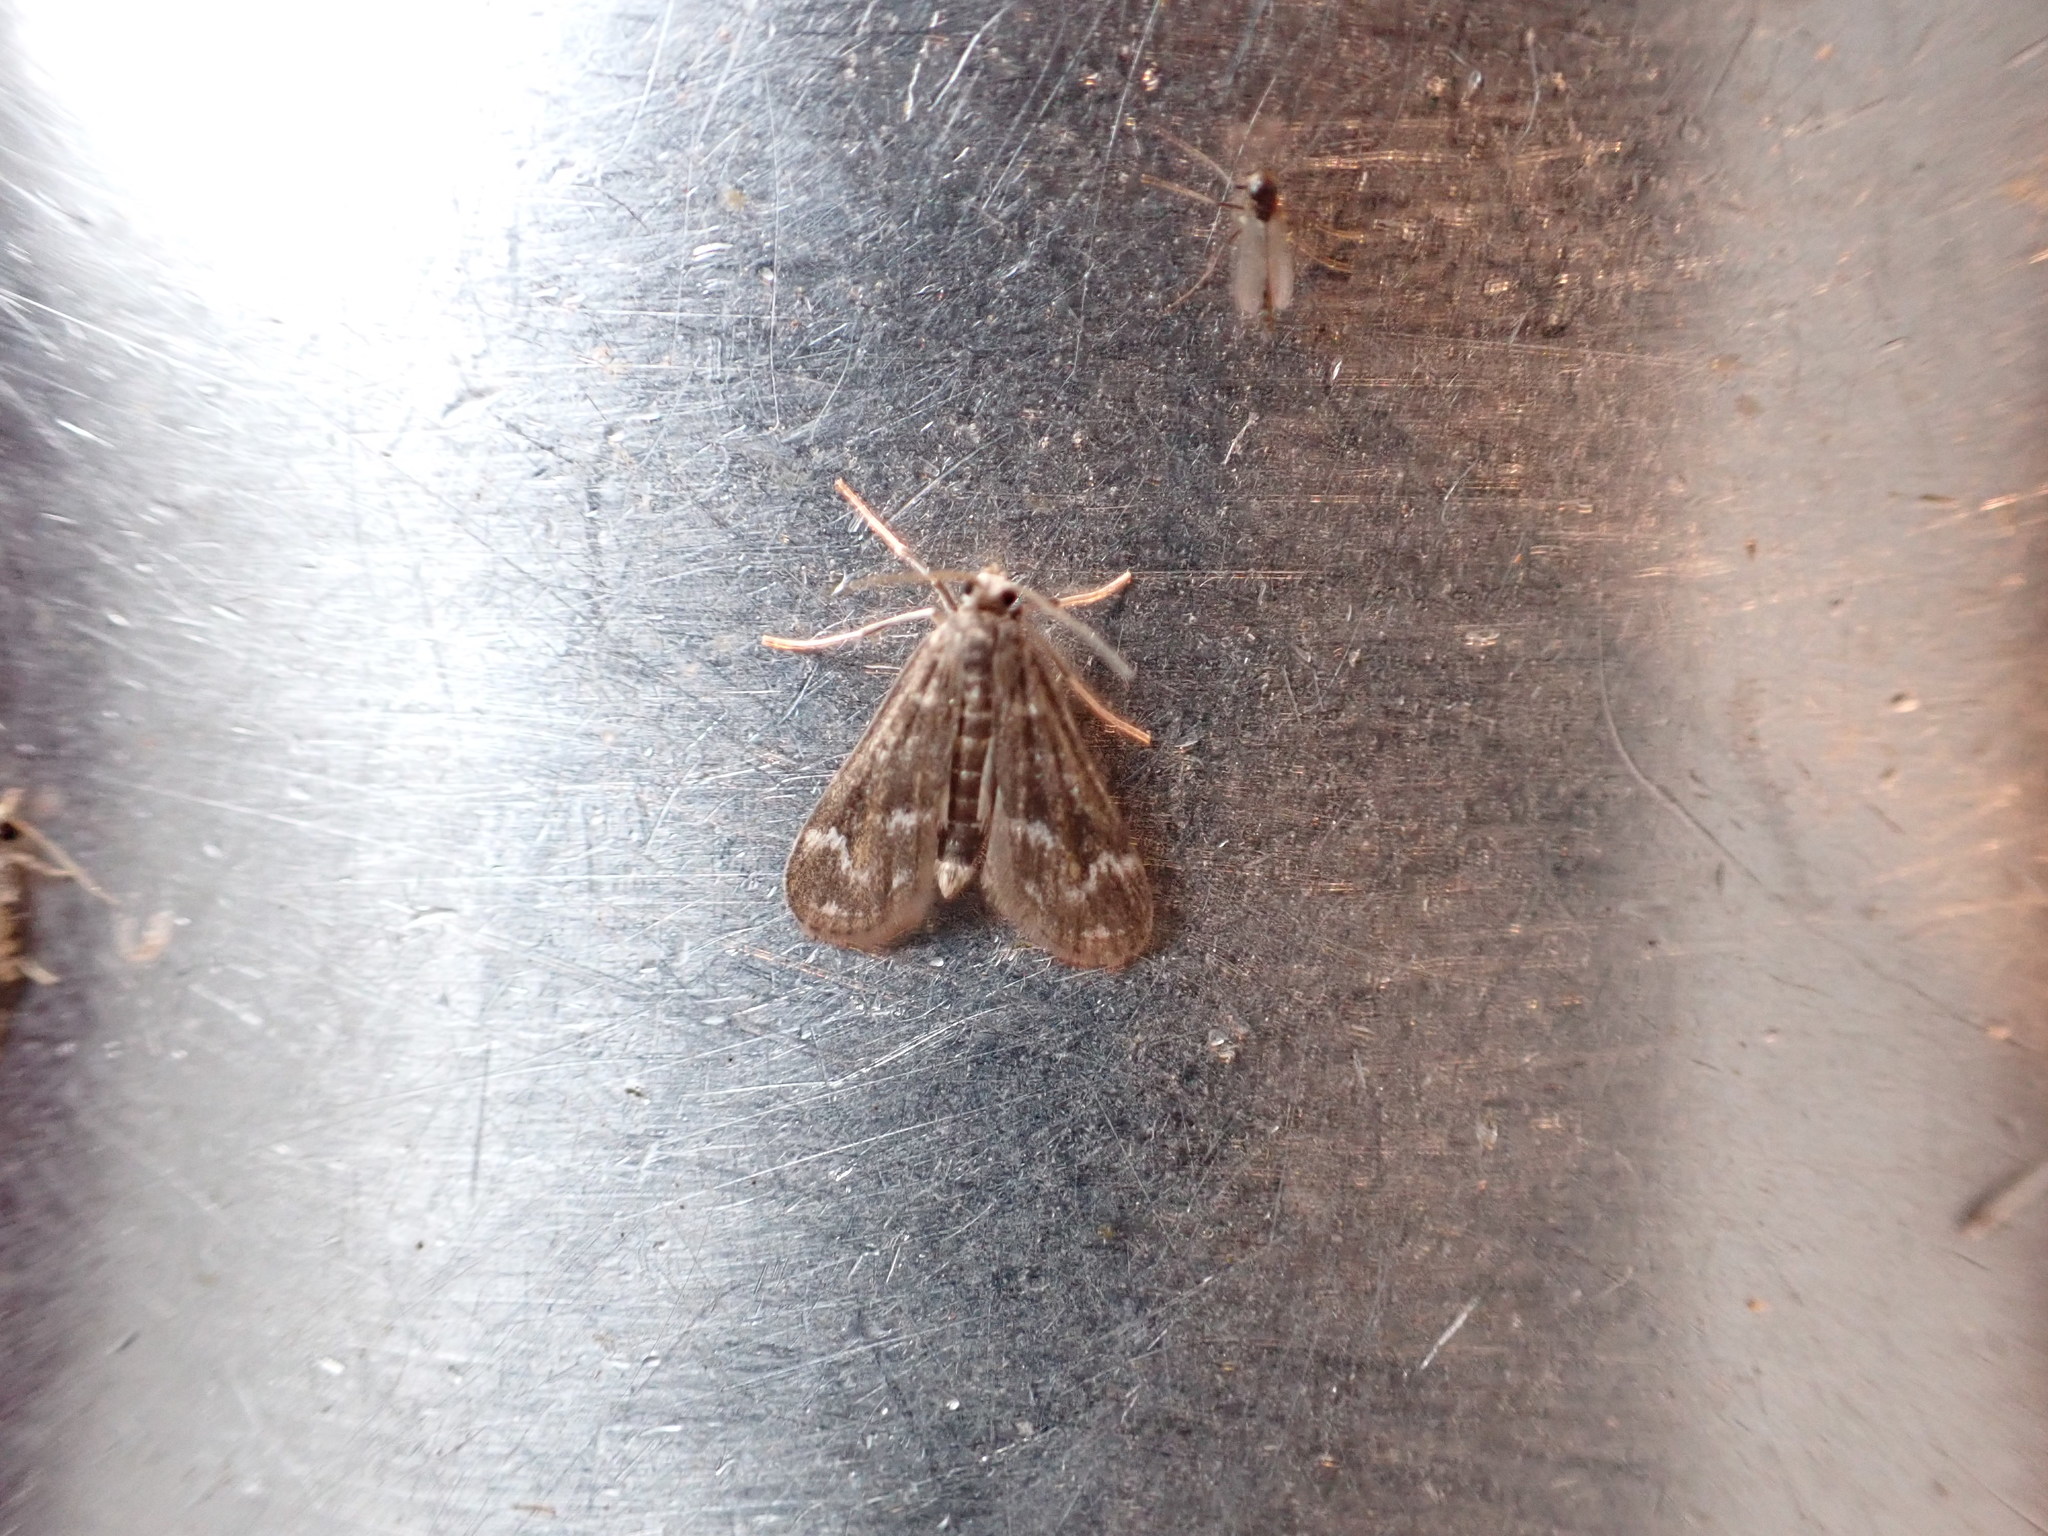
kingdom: Animalia
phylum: Arthropoda
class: Insecta
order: Lepidoptera
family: Crambidae
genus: Hygraula
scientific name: Hygraula nitens
